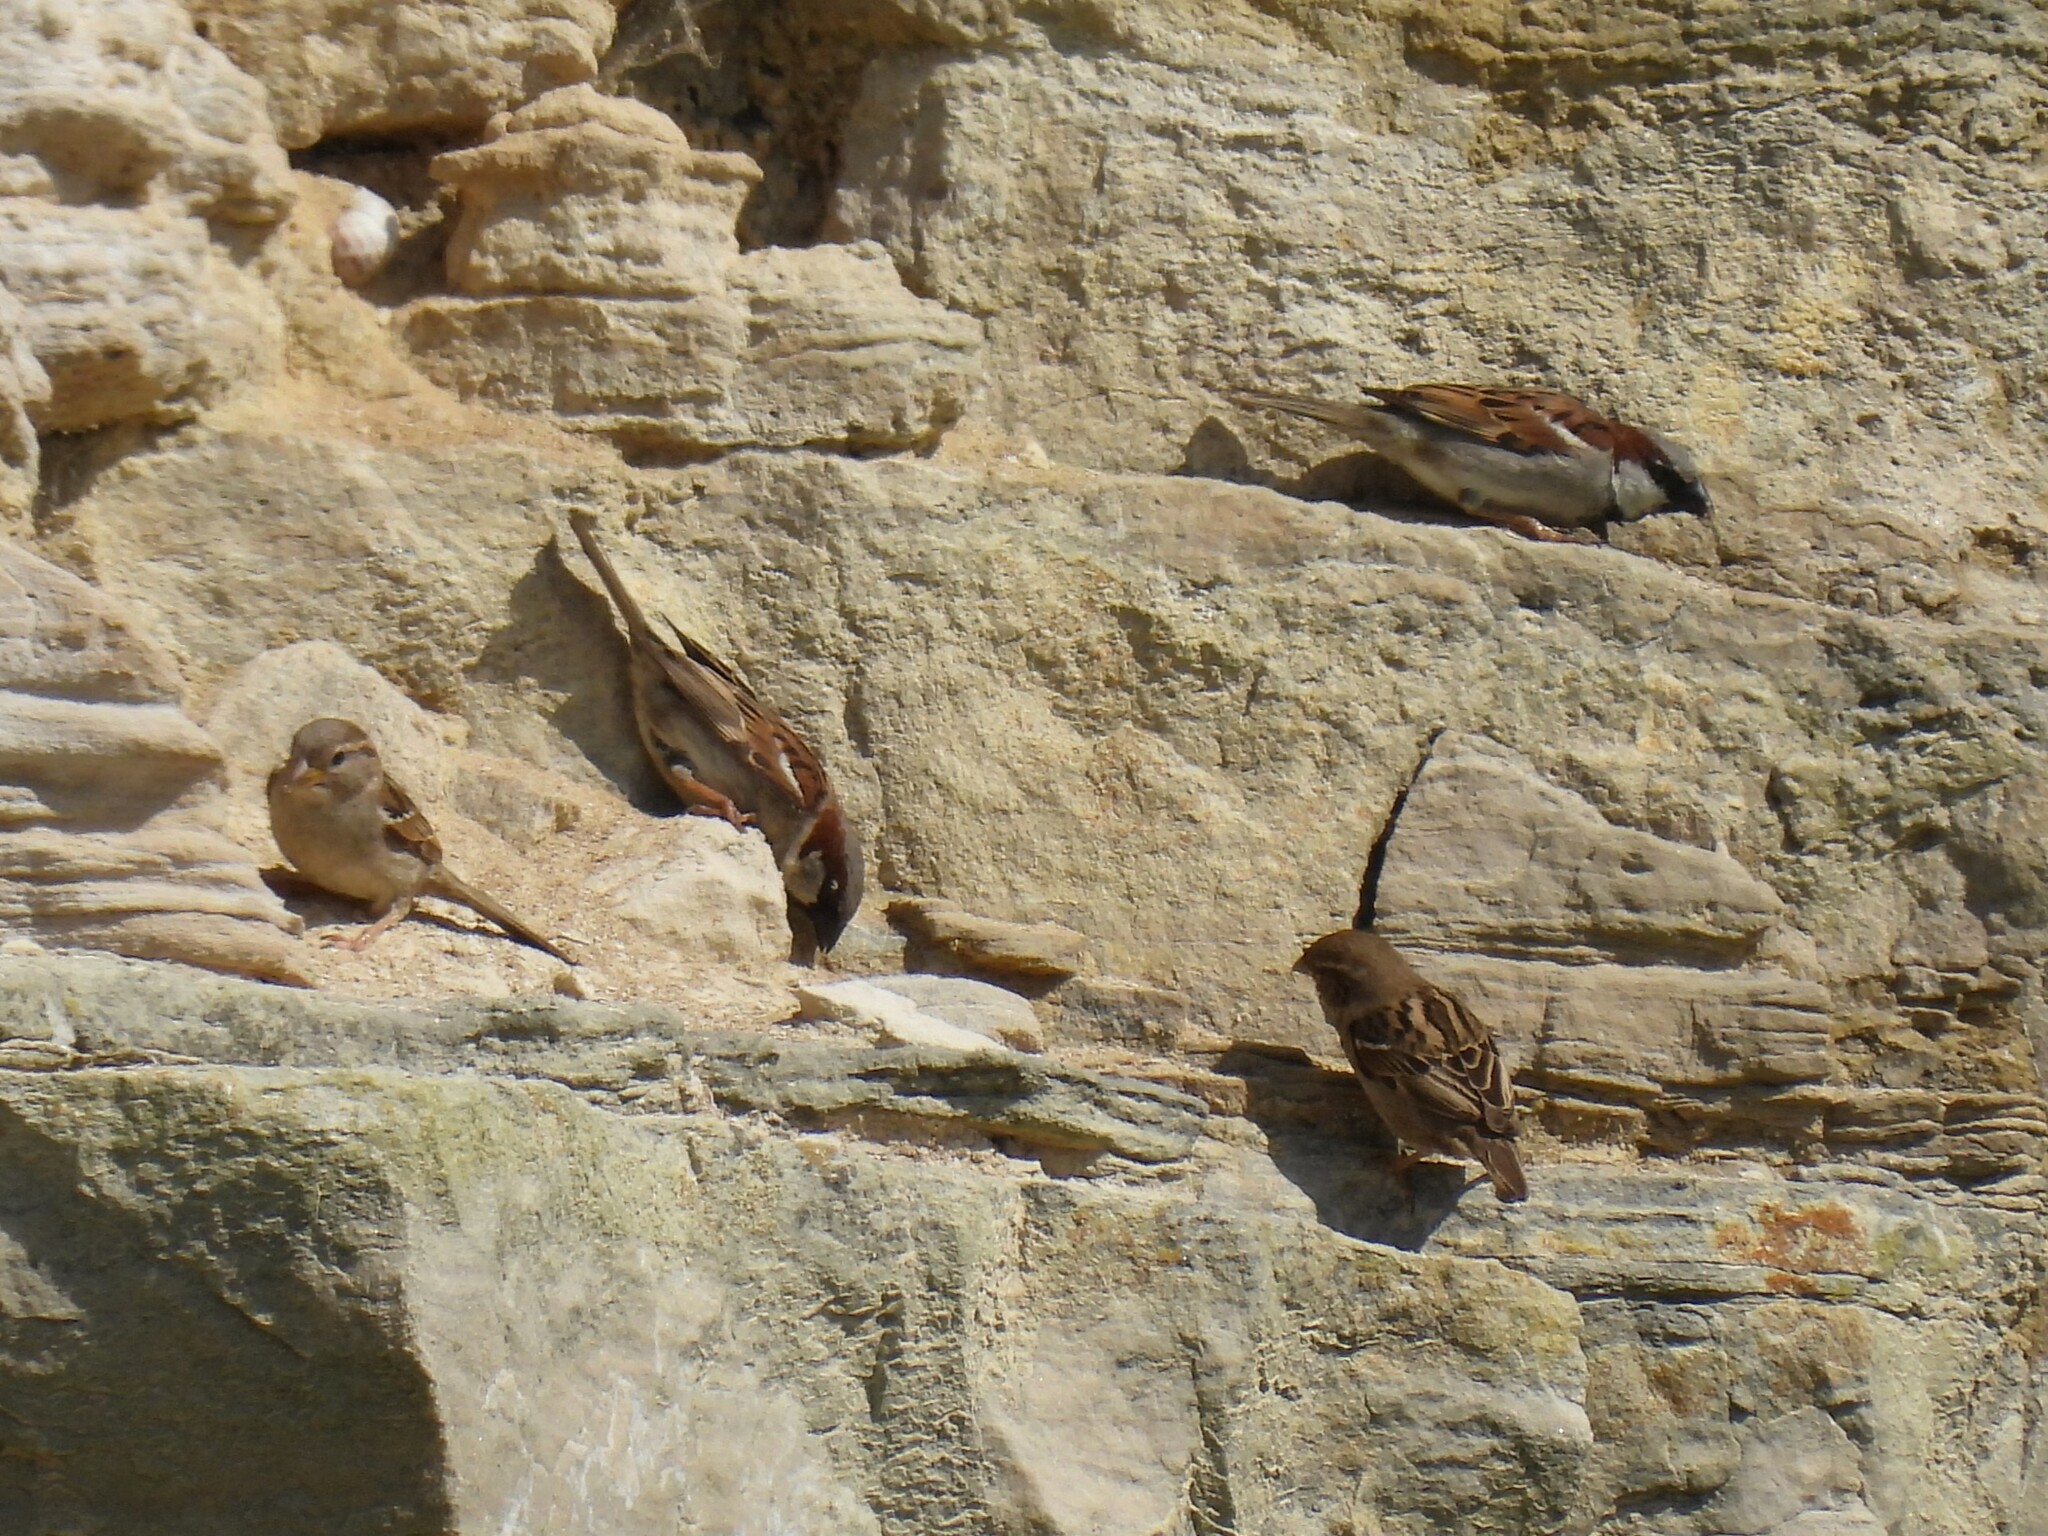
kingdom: Animalia
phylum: Chordata
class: Aves
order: Passeriformes
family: Passeridae
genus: Passer
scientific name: Passer domesticus
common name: House sparrow
